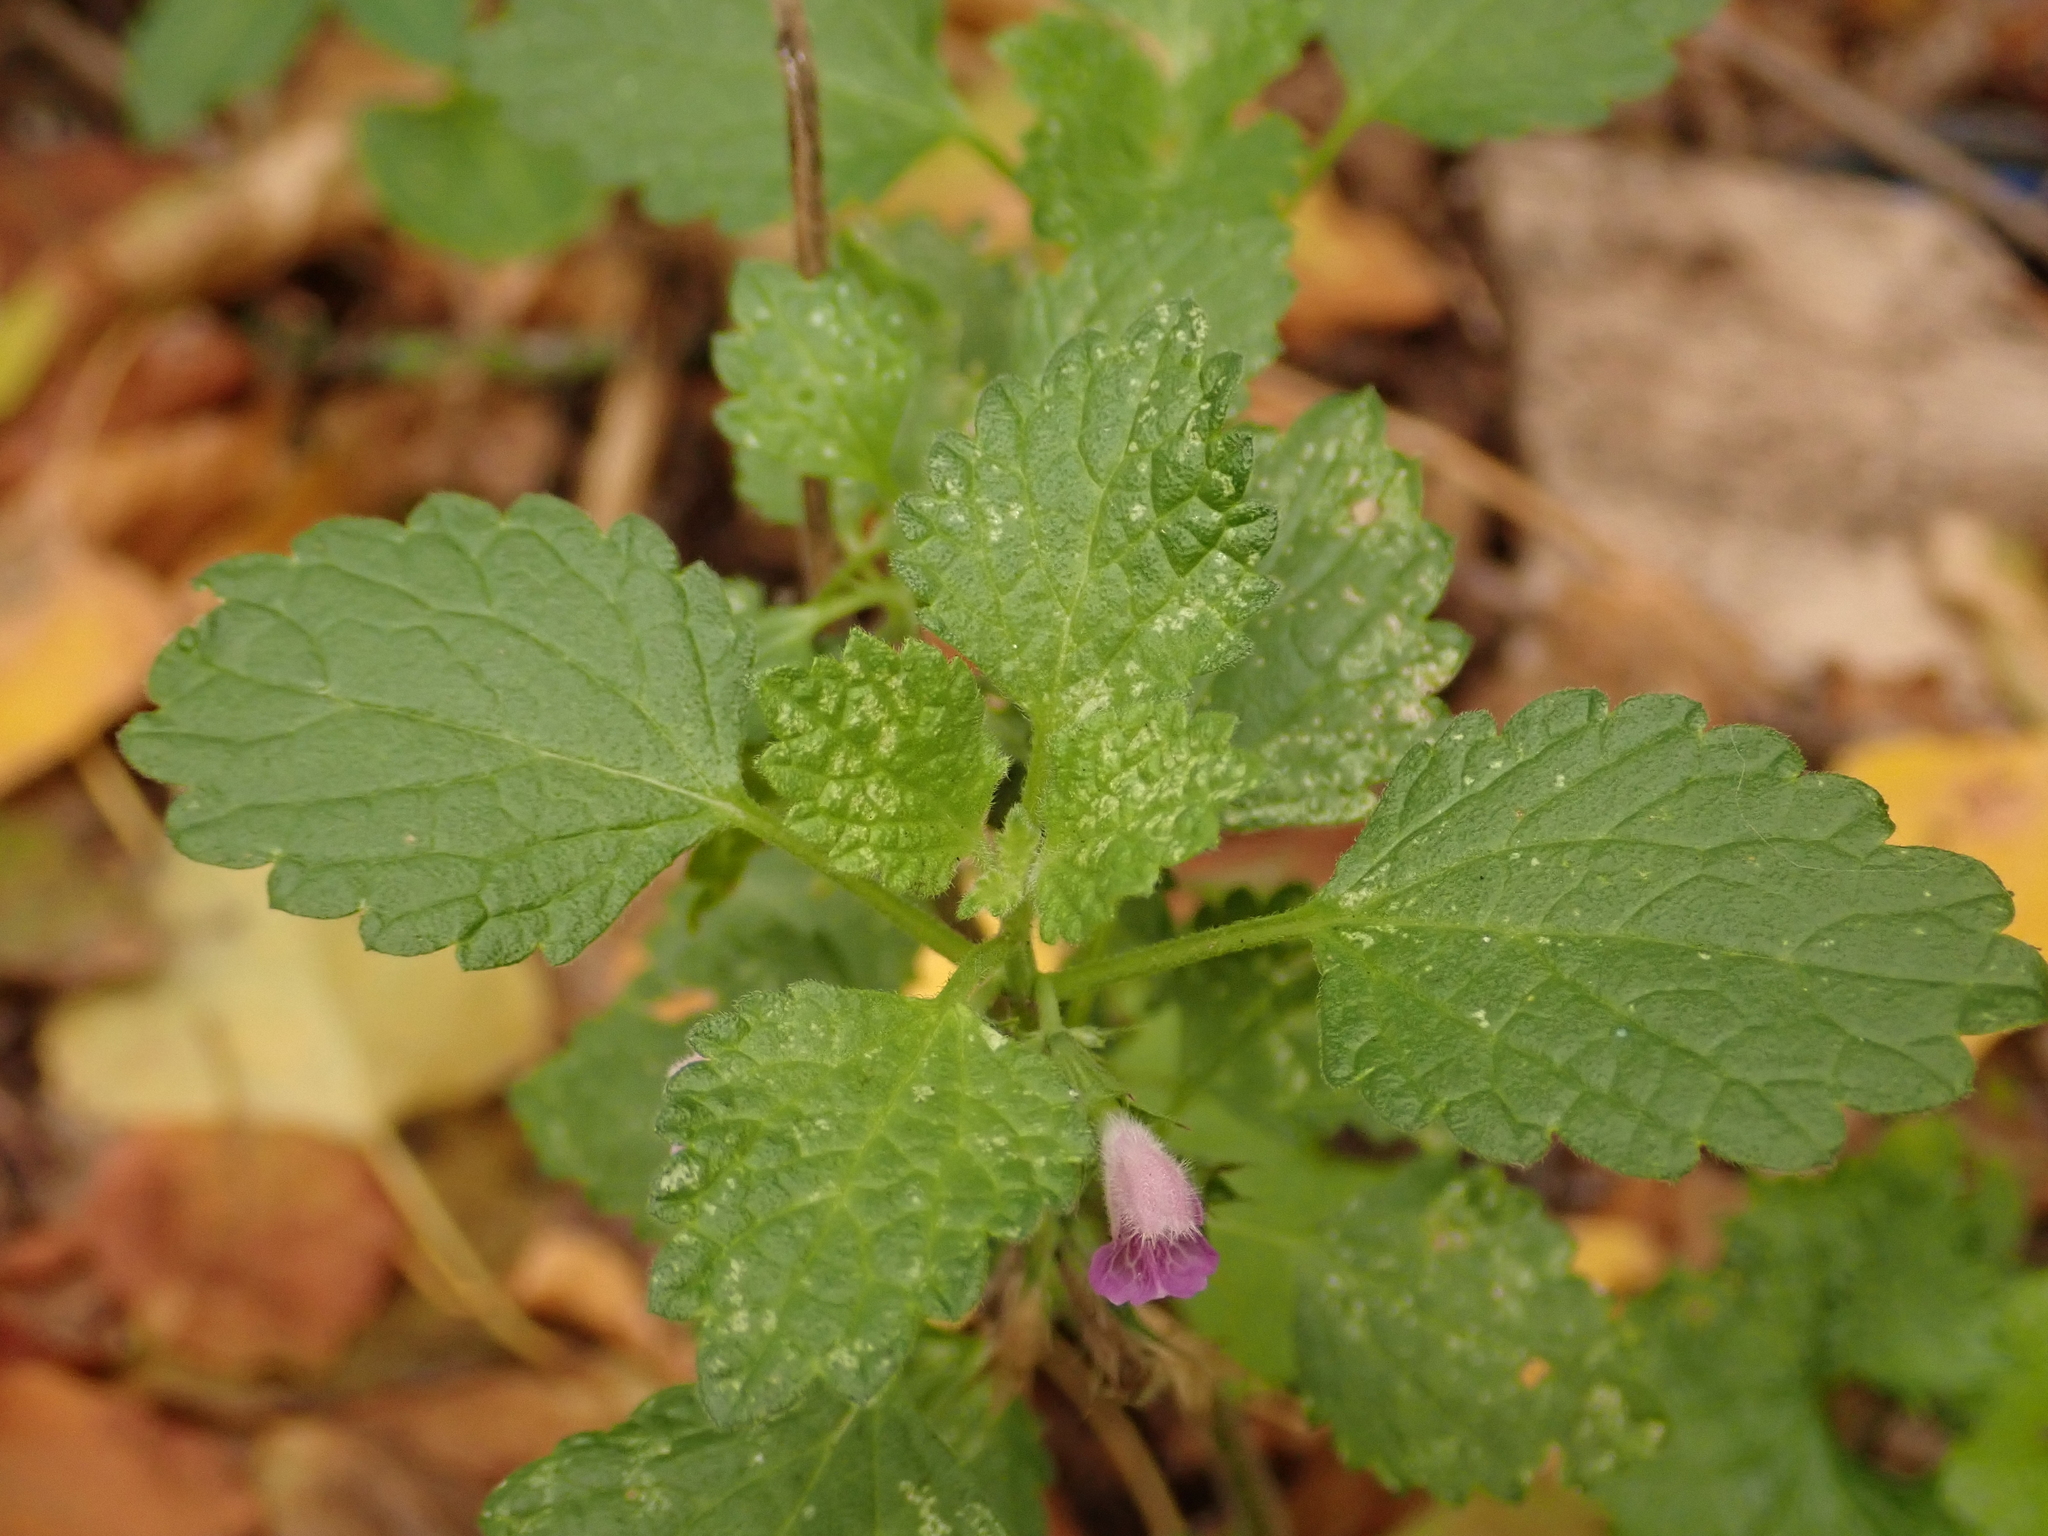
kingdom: Plantae
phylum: Tracheophyta
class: Magnoliopsida
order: Lamiales
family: Lamiaceae
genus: Ballota
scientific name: Ballota nigra
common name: Black horehound
